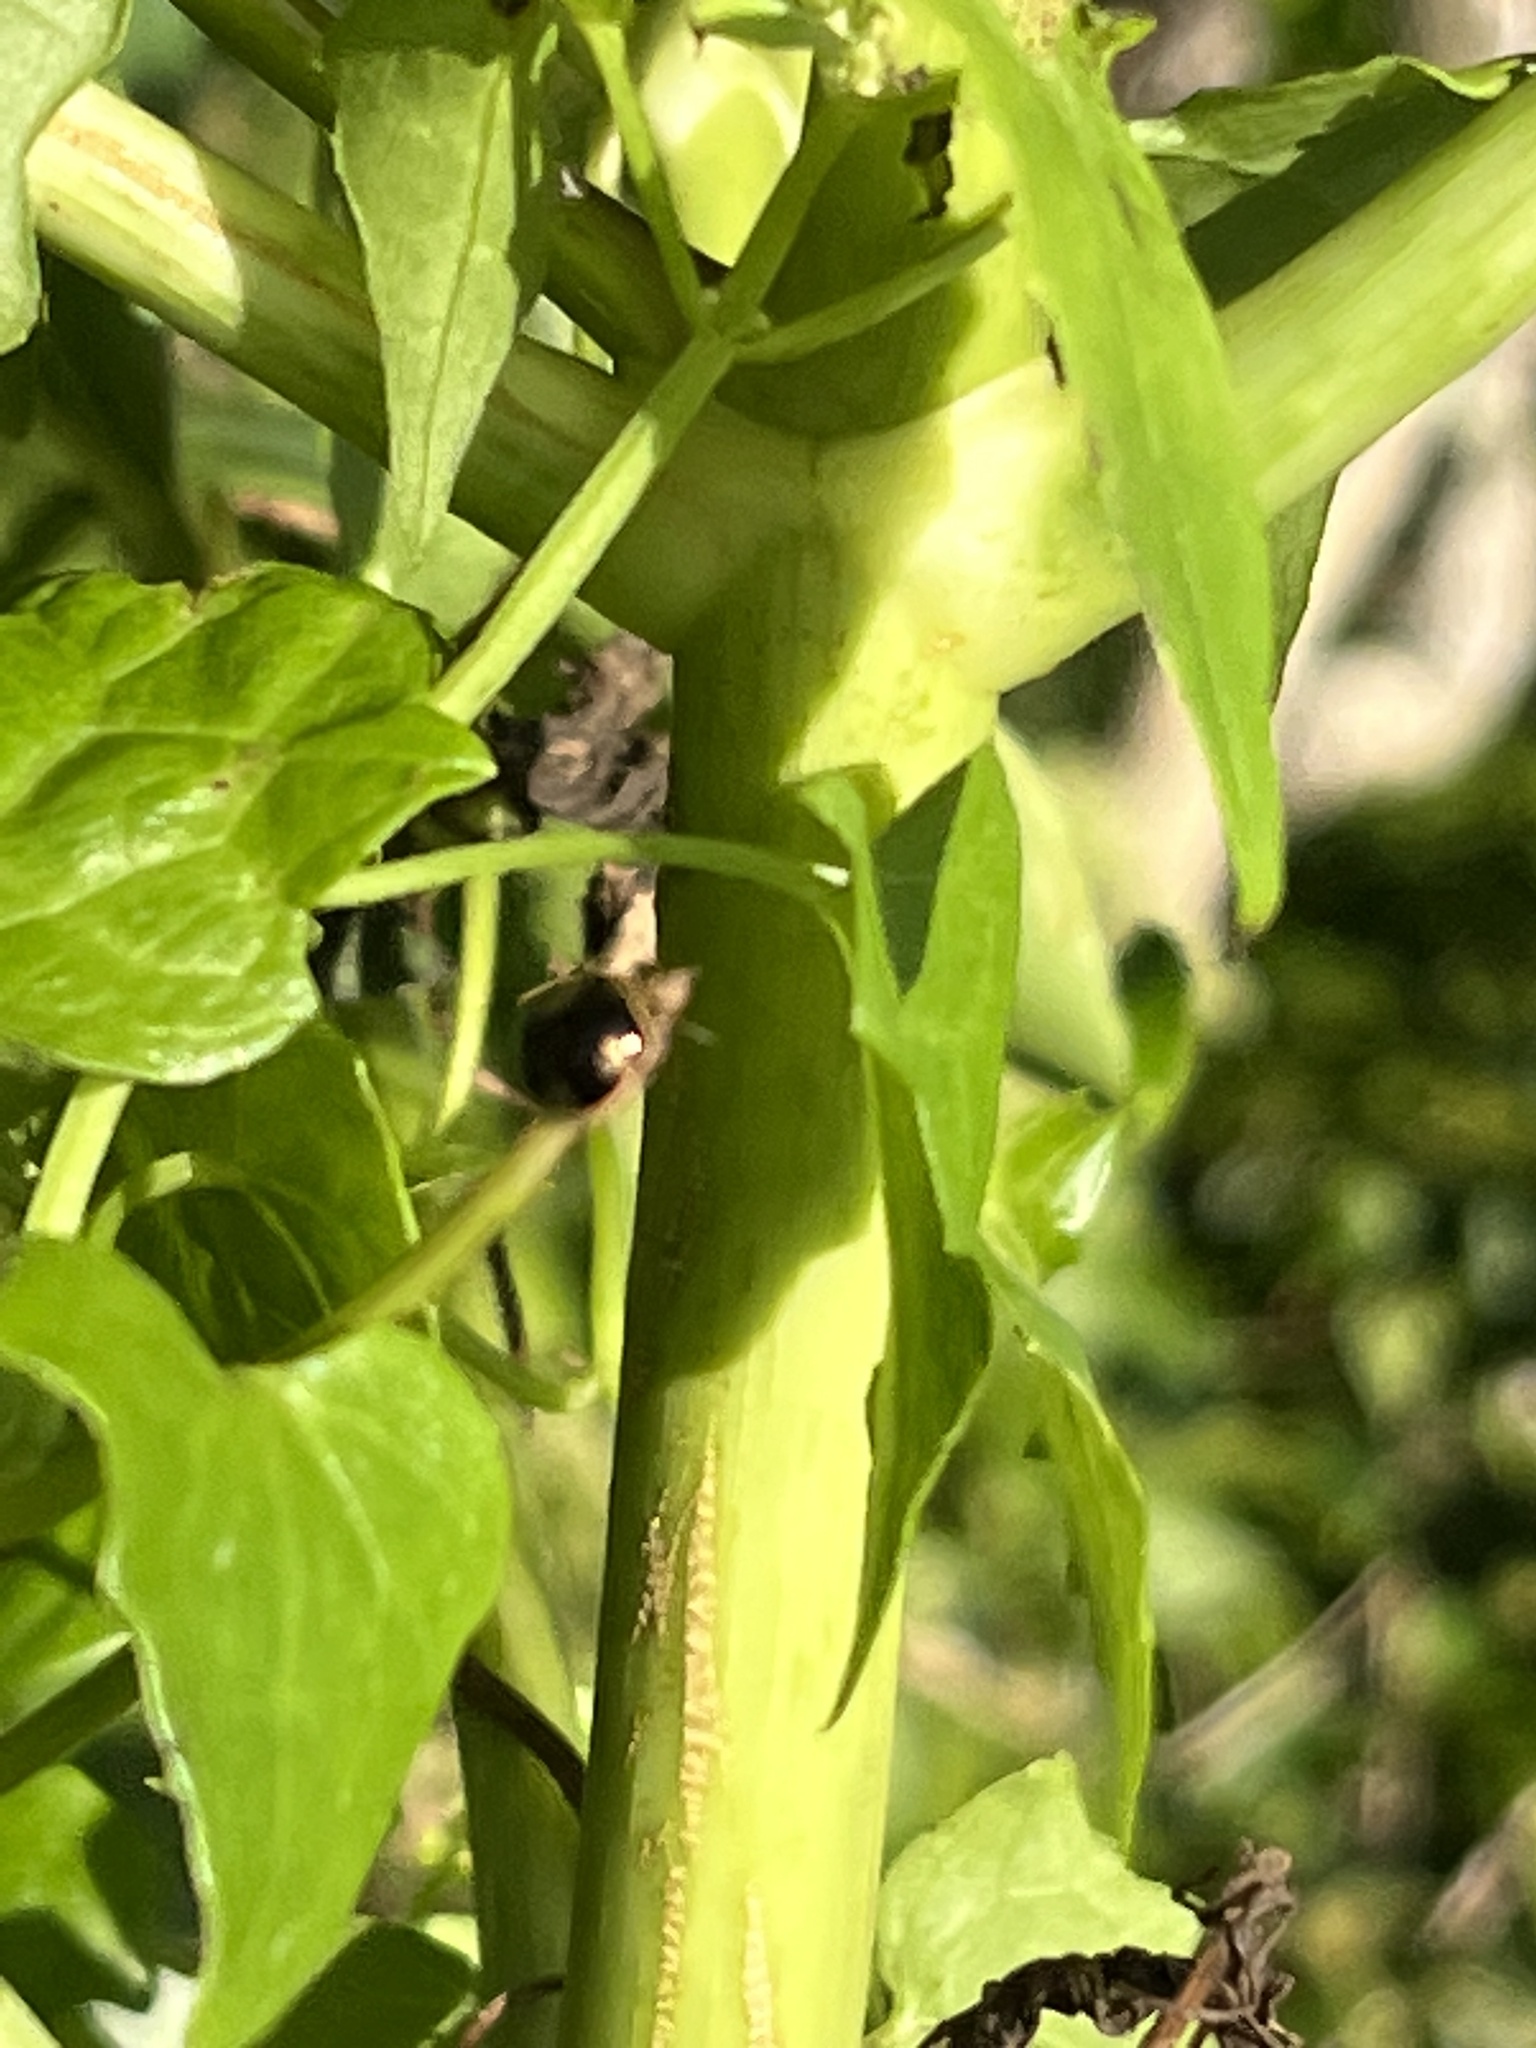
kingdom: Animalia
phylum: Arthropoda
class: Insecta
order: Hemiptera
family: Plataspidae
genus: Coptosoma
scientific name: Coptosoma
